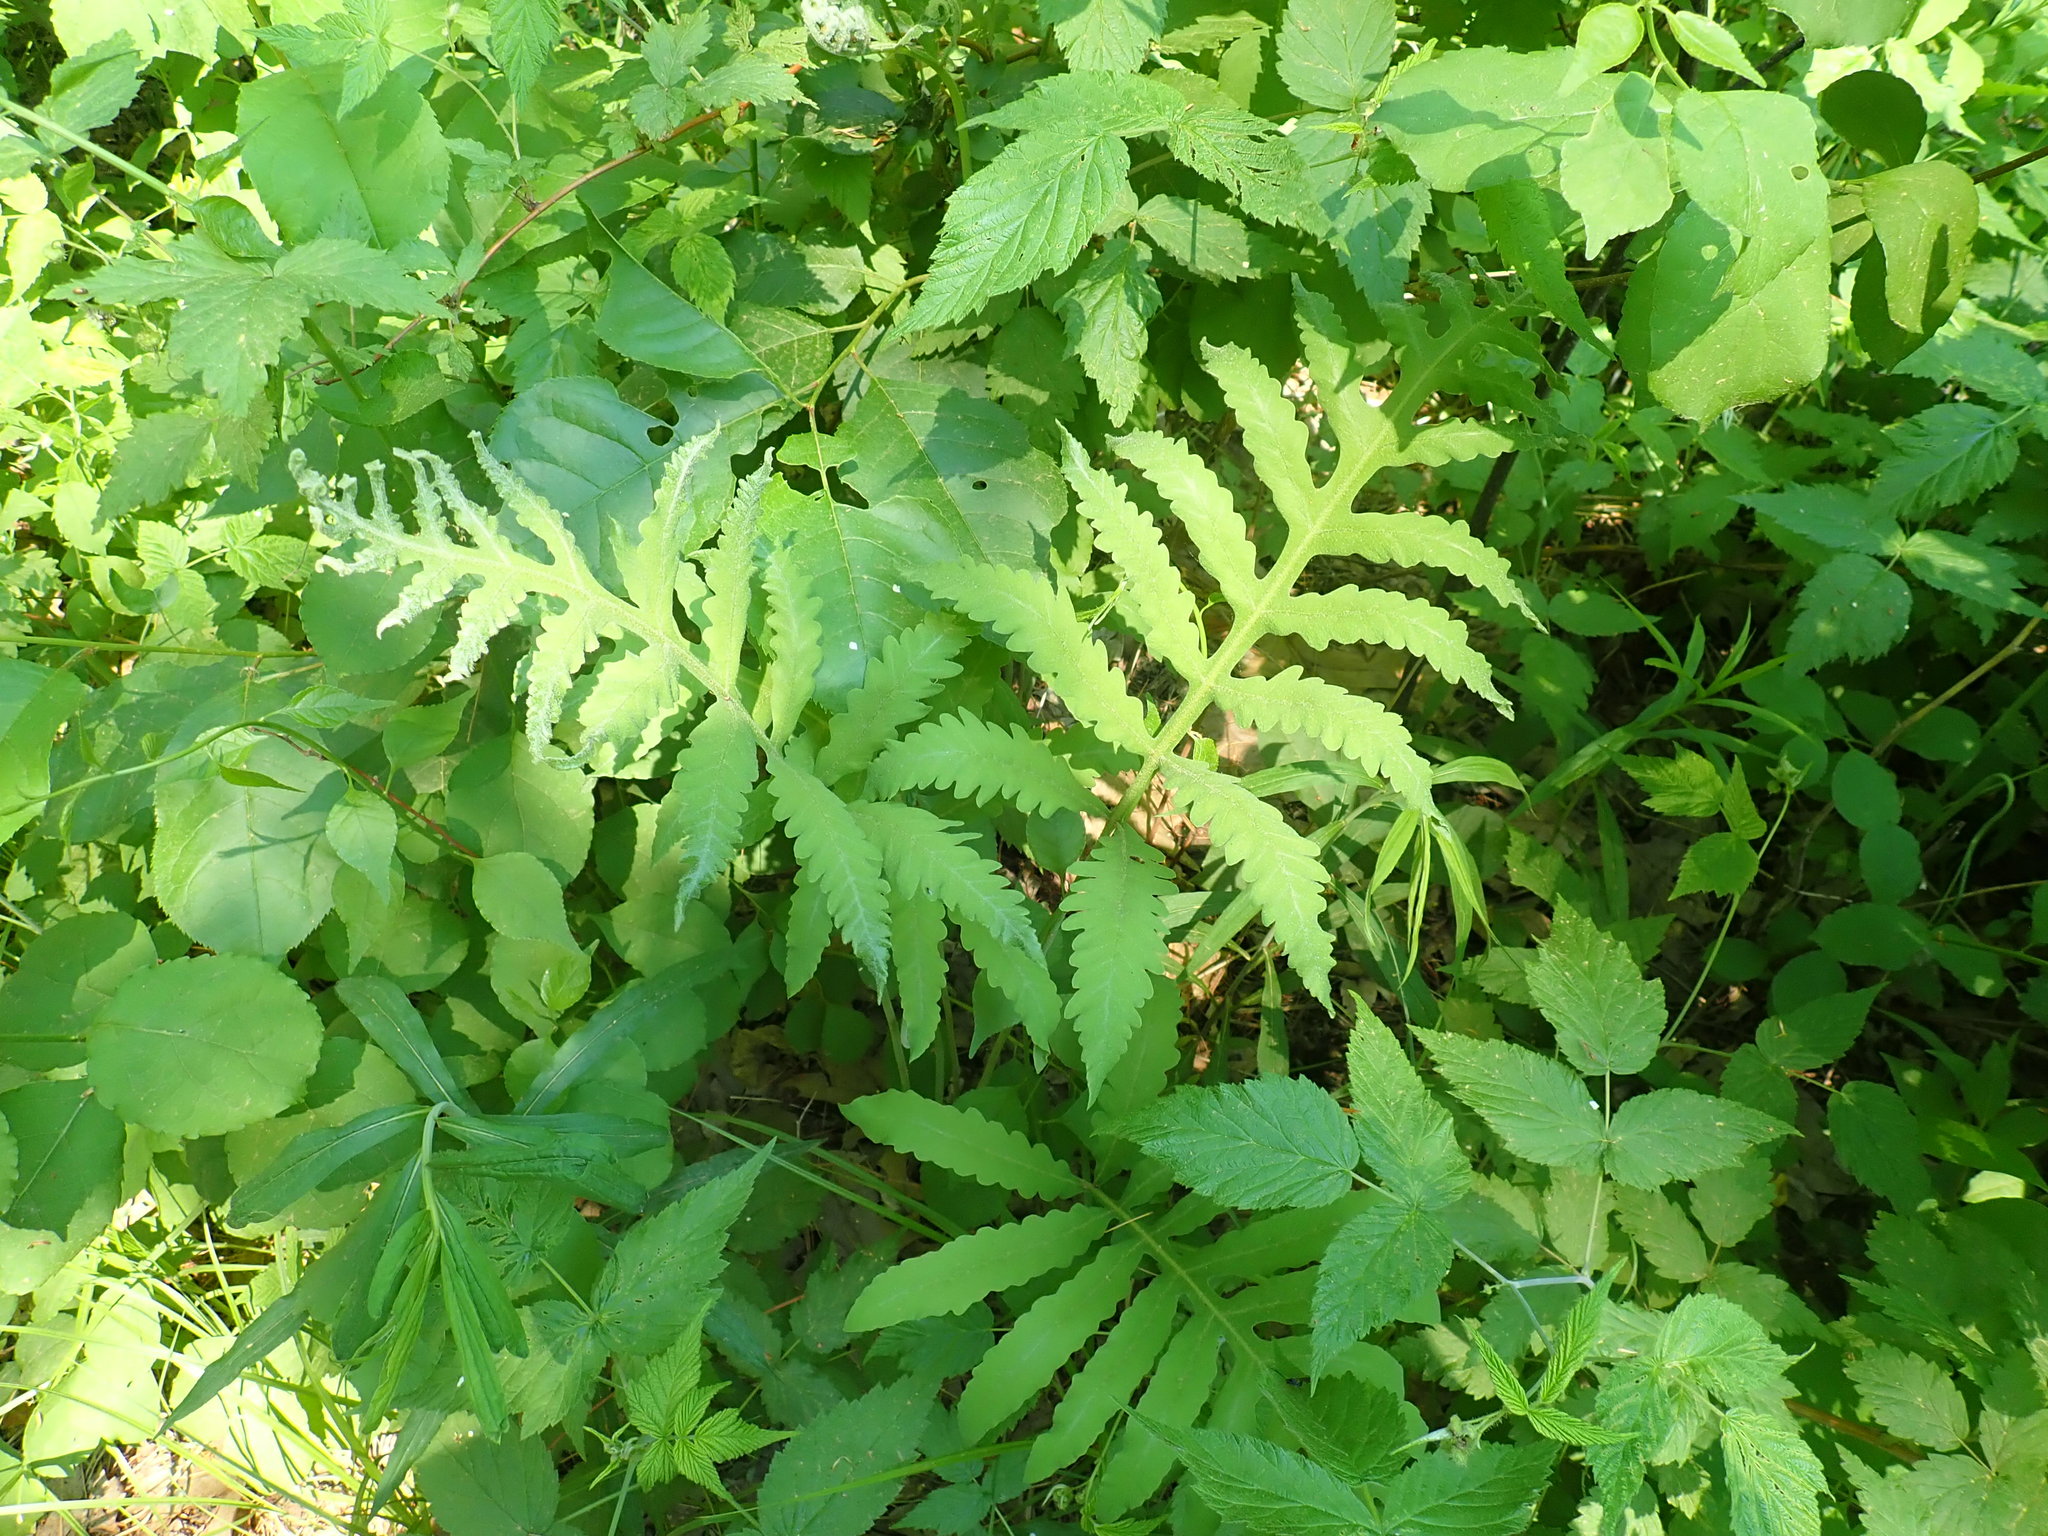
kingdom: Plantae
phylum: Tracheophyta
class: Polypodiopsida
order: Polypodiales
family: Onocleaceae
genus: Onoclea
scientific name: Onoclea sensibilis
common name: Sensitive fern
